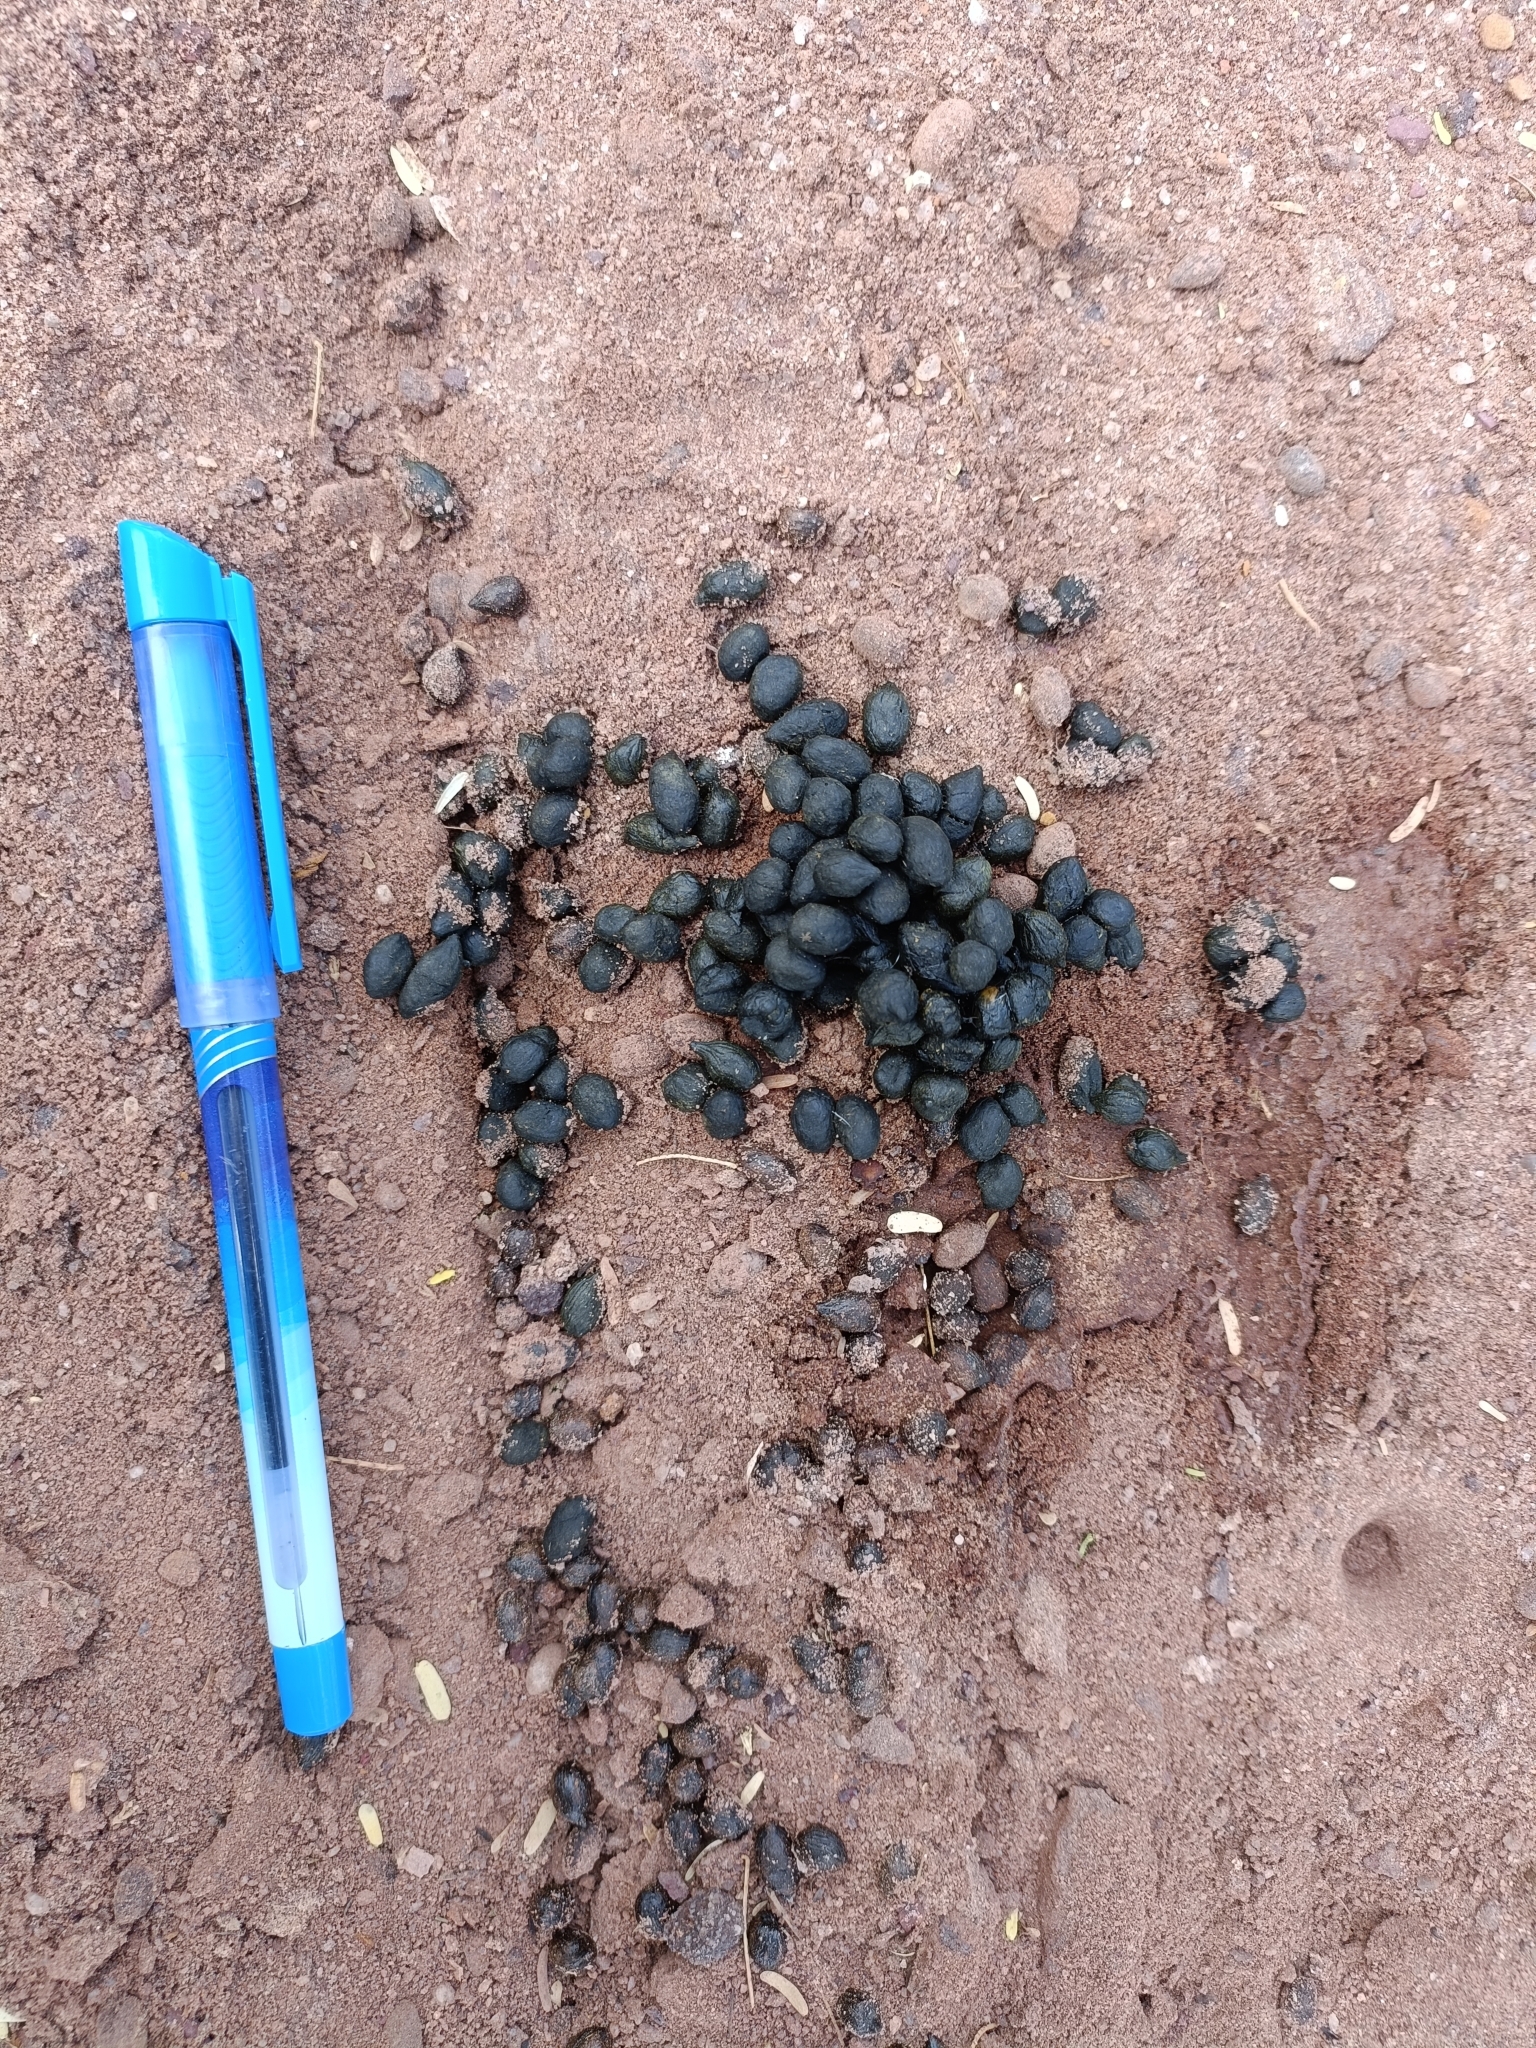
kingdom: Animalia
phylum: Chordata
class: Mammalia
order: Artiodactyla
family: Bovidae
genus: Gazella
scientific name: Gazella bennettii
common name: Indian gazelle
